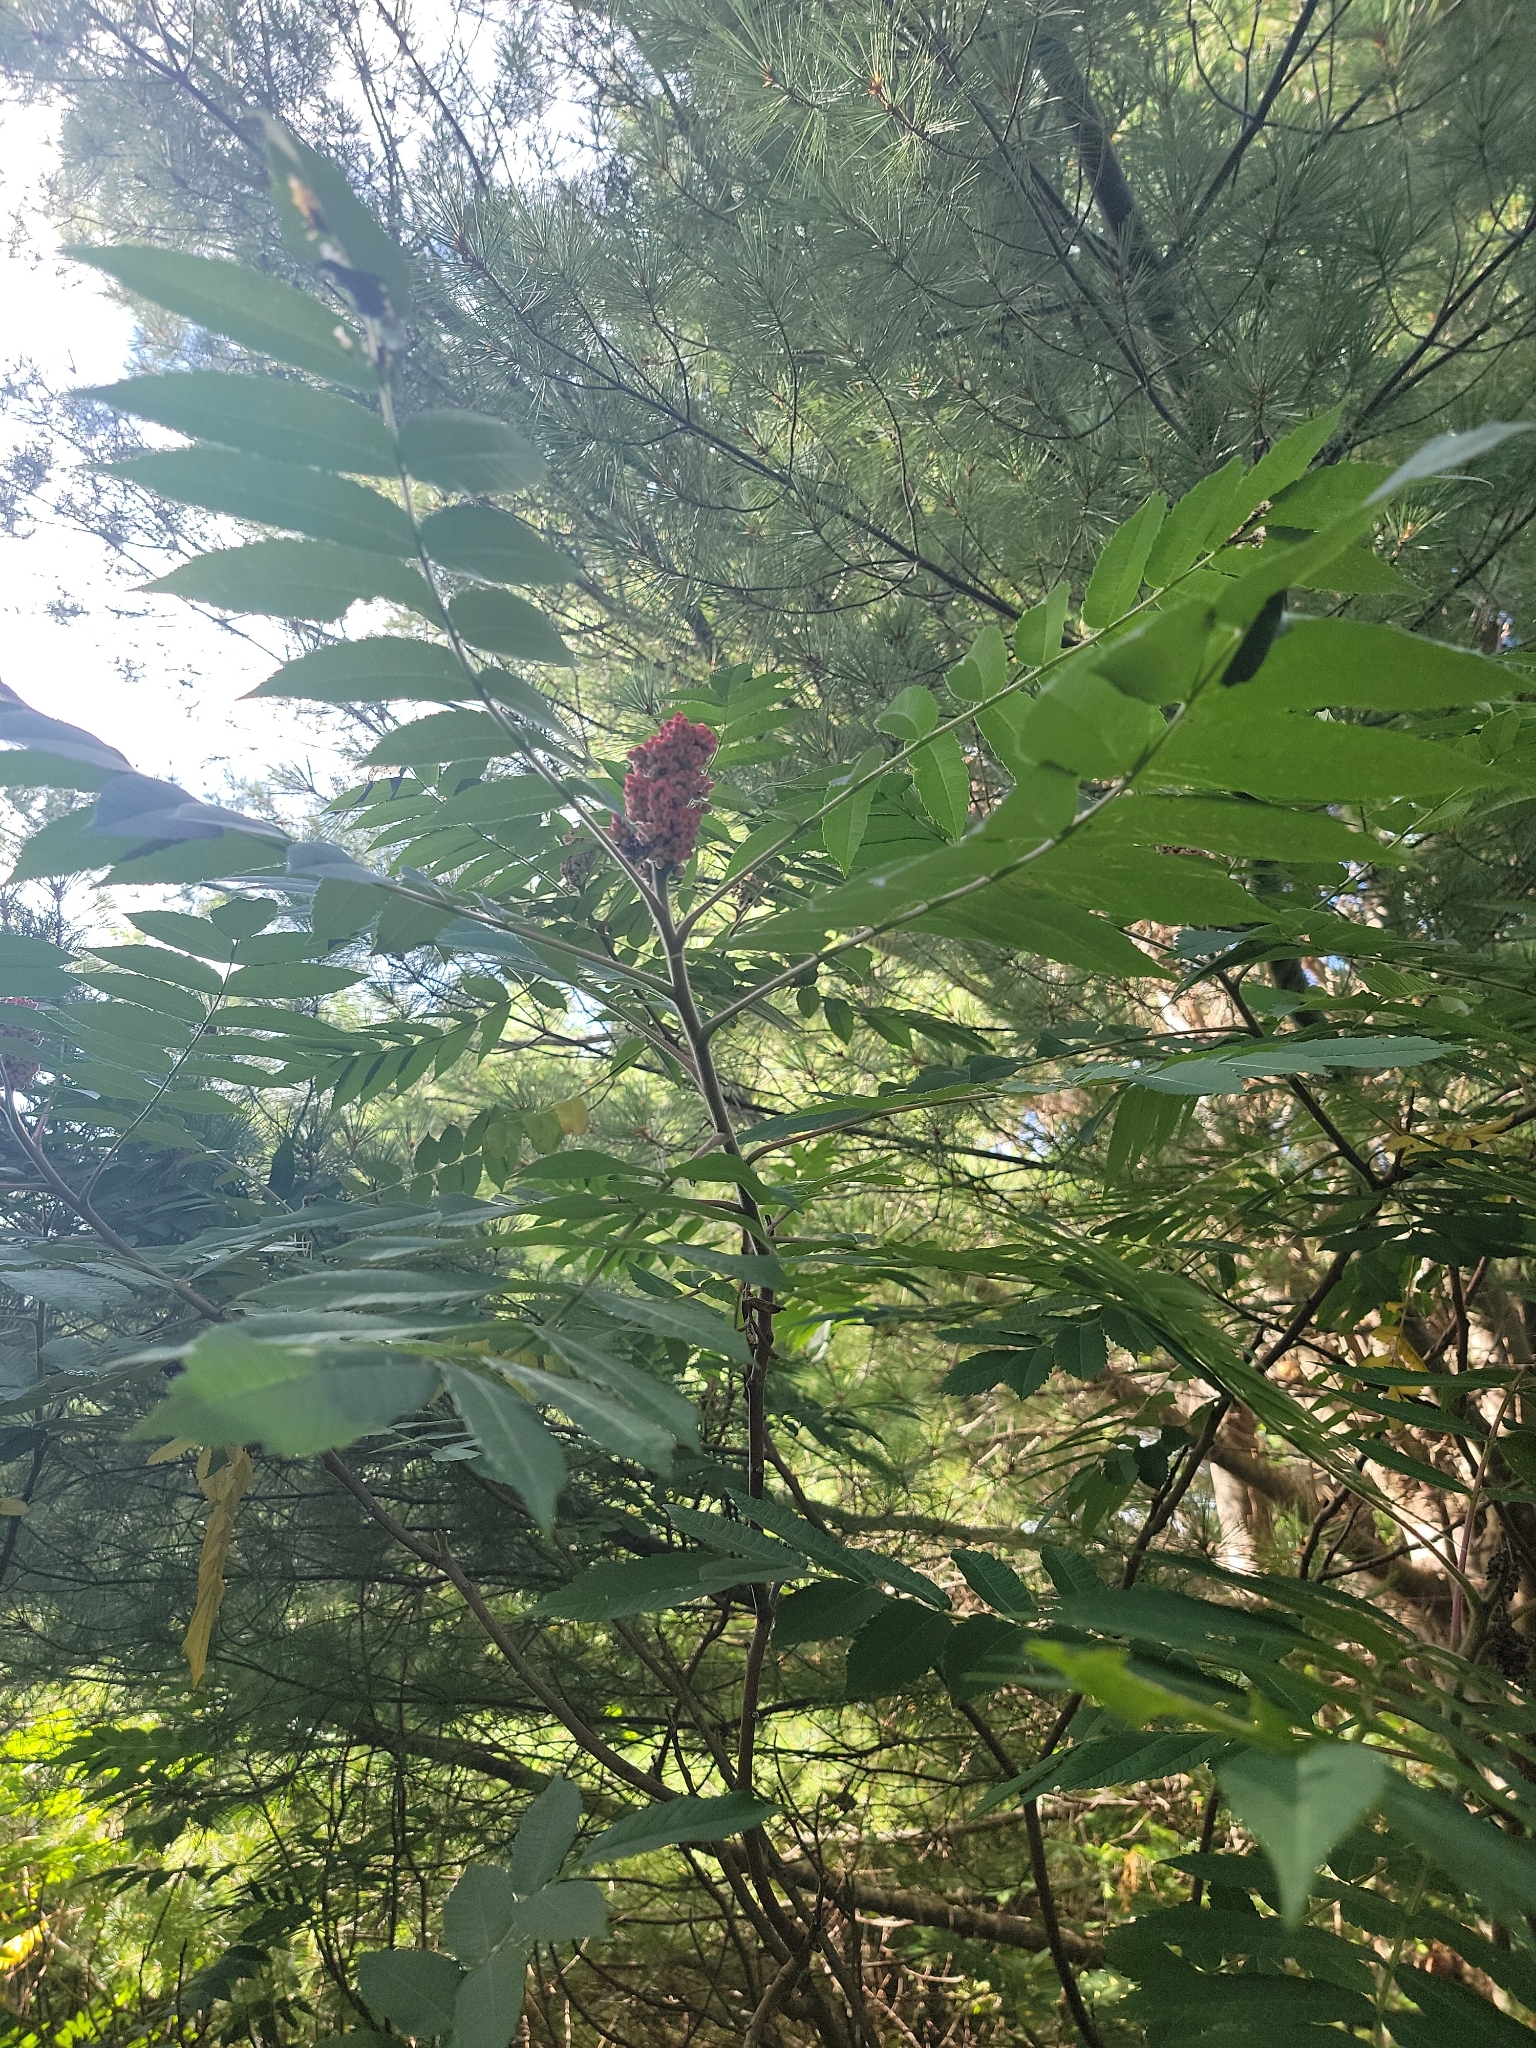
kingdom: Plantae
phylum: Tracheophyta
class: Magnoliopsida
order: Sapindales
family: Anacardiaceae
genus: Rhus
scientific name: Rhus typhina
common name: Staghorn sumac
